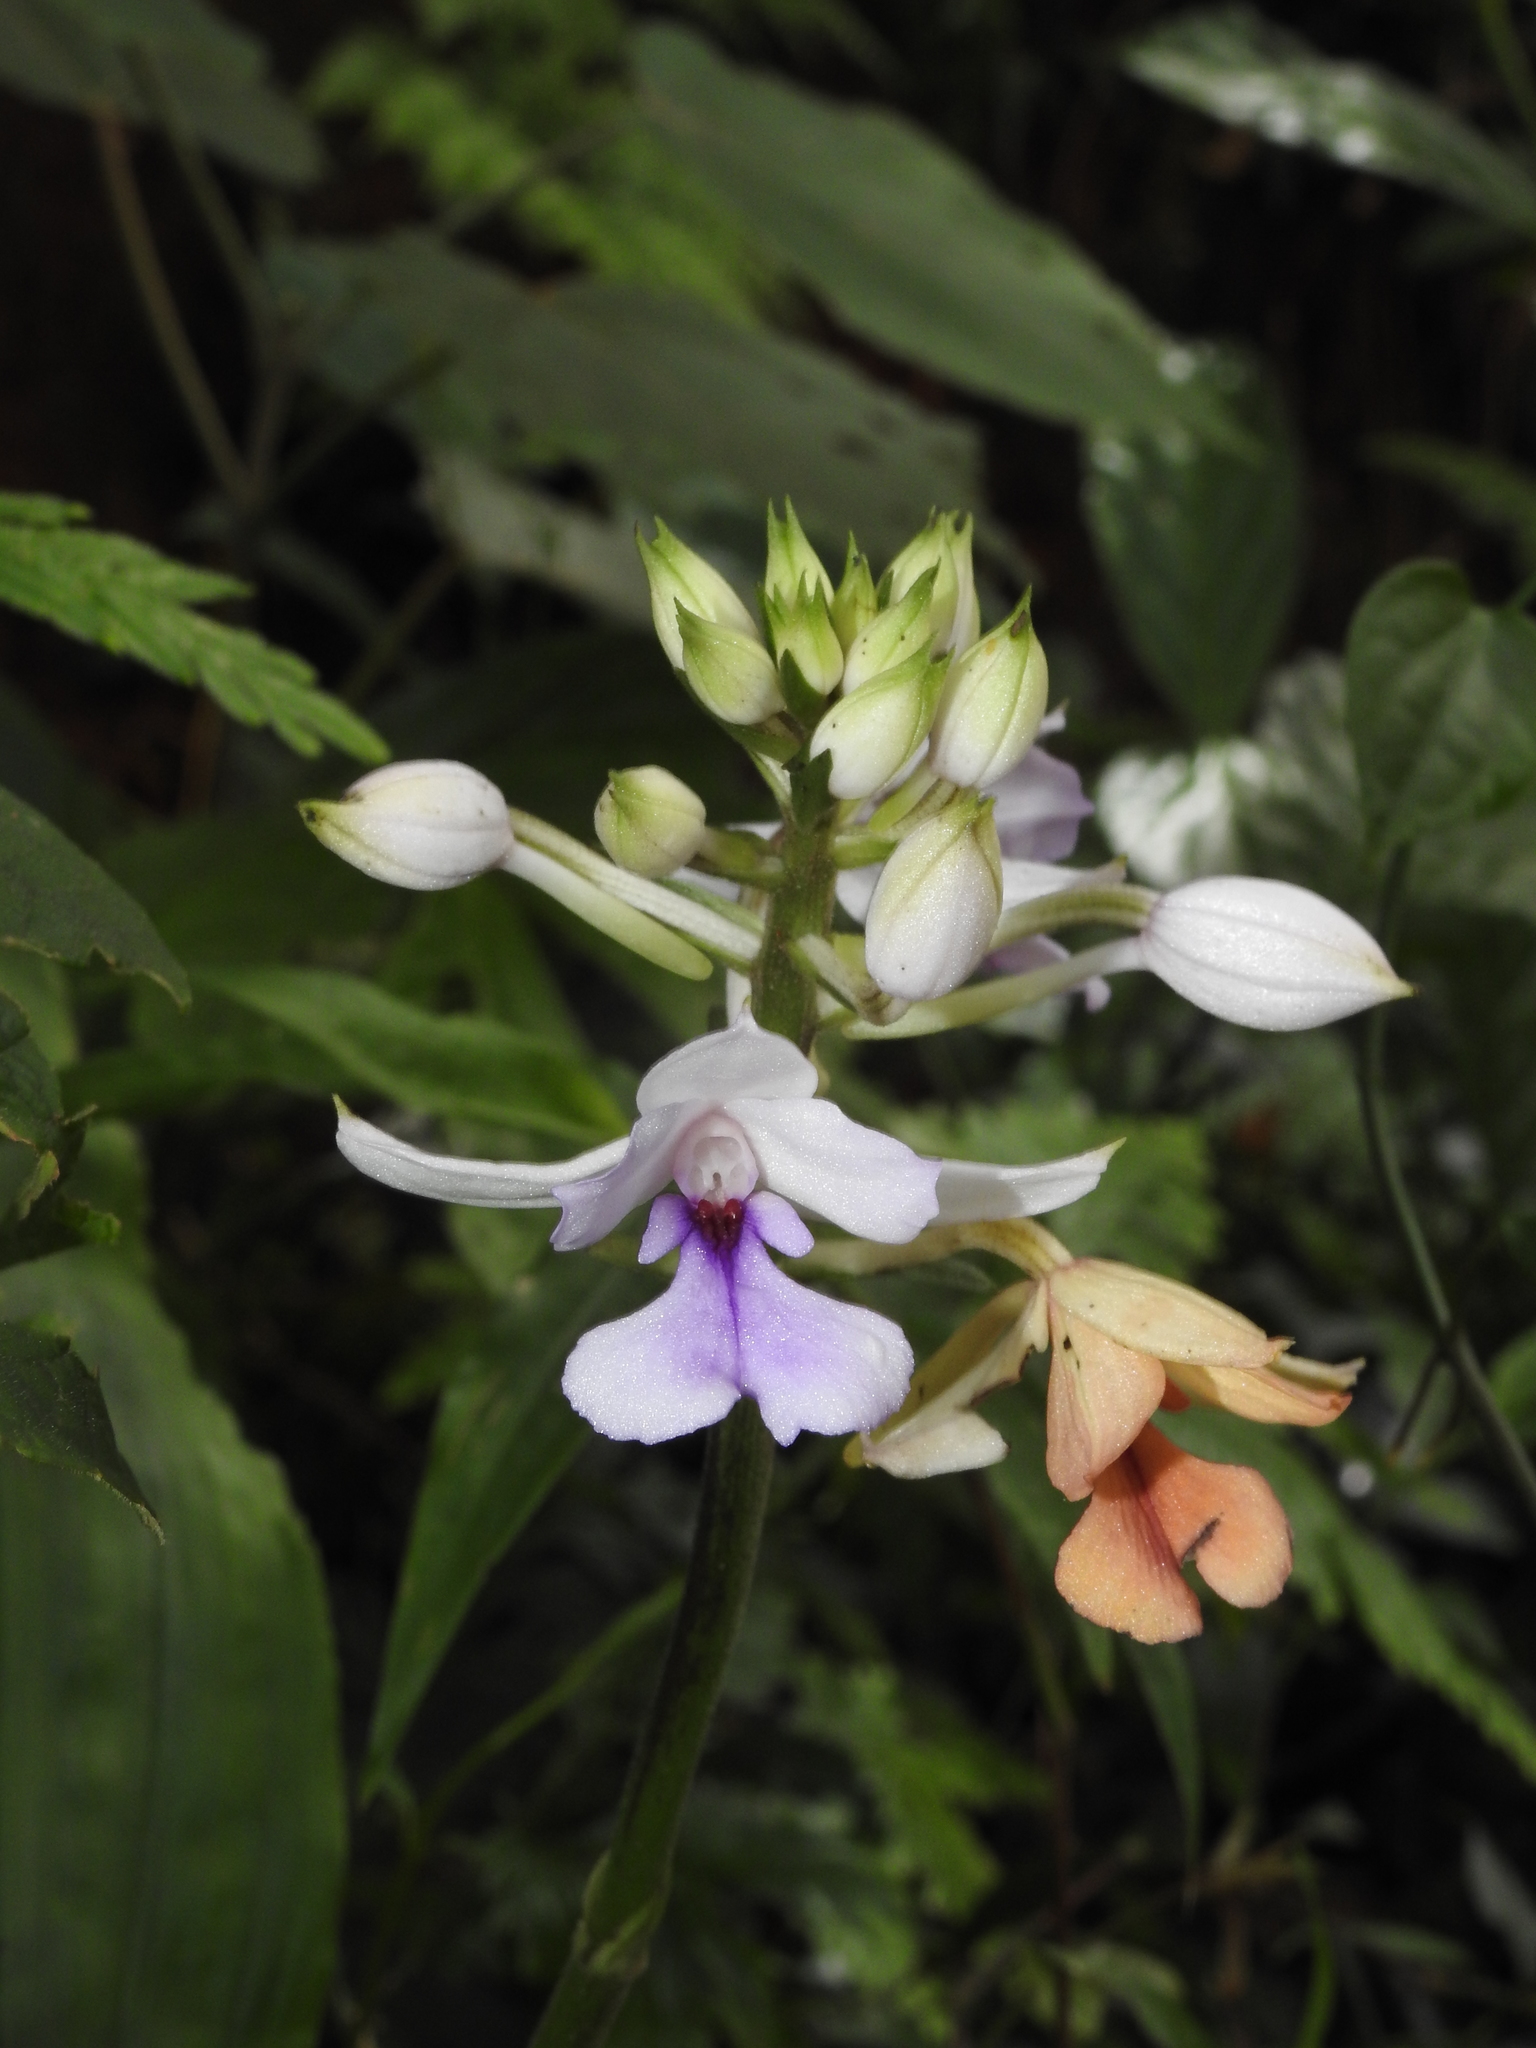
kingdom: Plantae
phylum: Tracheophyta
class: Liliopsida
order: Asparagales
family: Orchidaceae
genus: Calanthe
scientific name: Calanthe masuca
